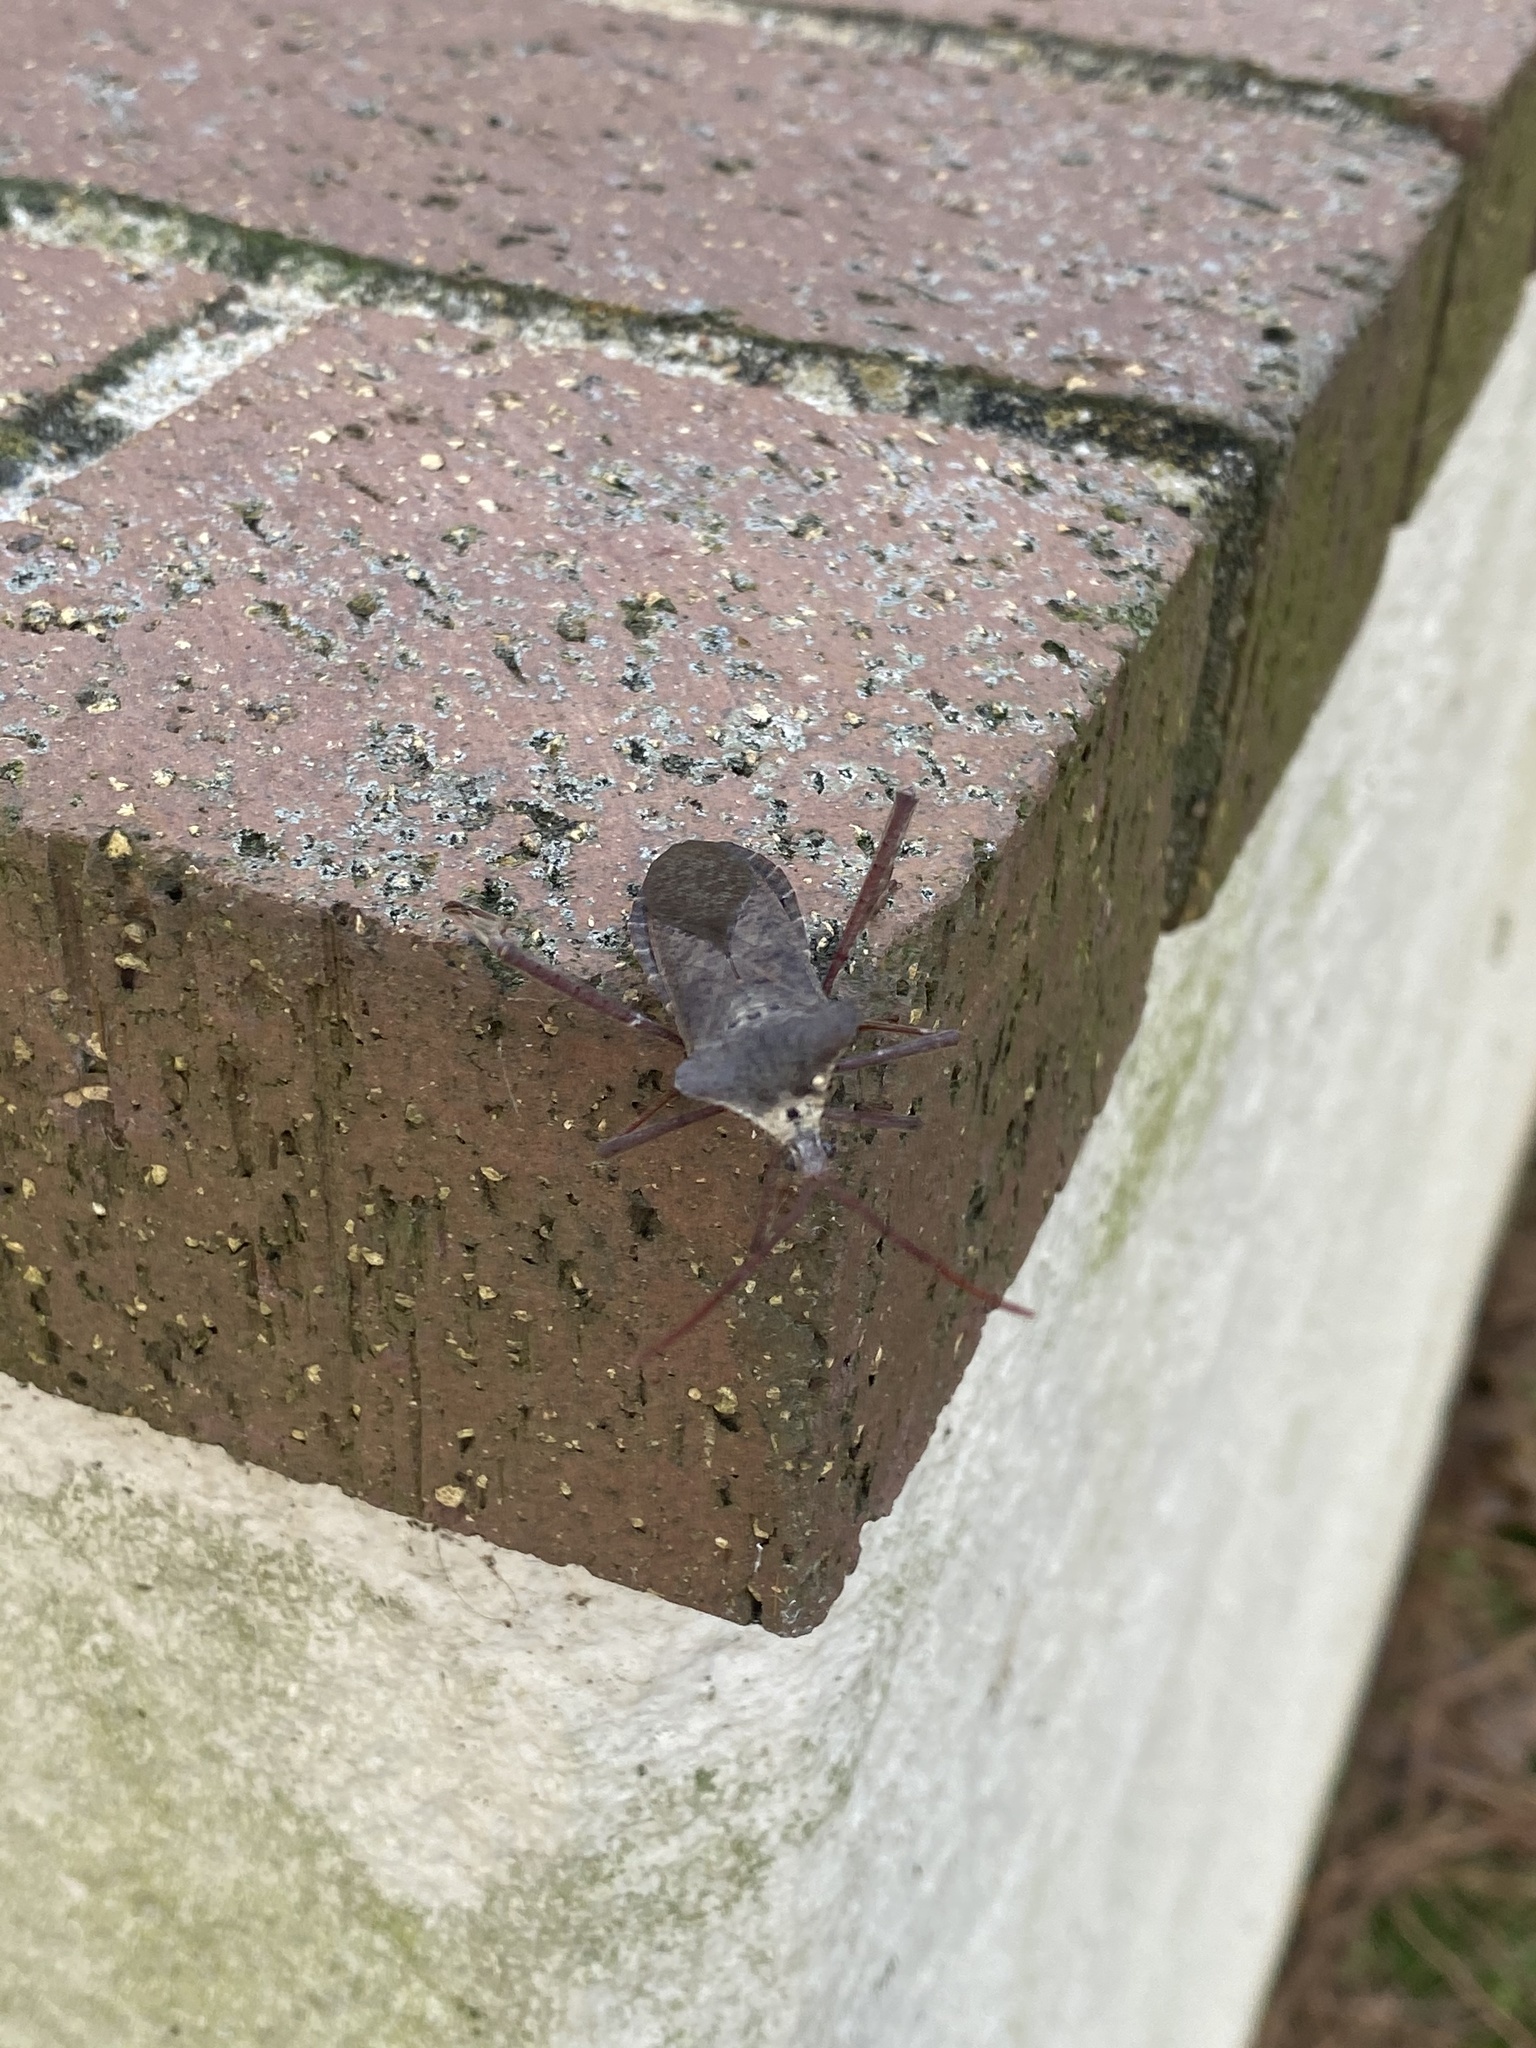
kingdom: Animalia
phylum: Arthropoda
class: Insecta
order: Hemiptera
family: Coreidae
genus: Acanthocephala
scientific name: Acanthocephala declivis
